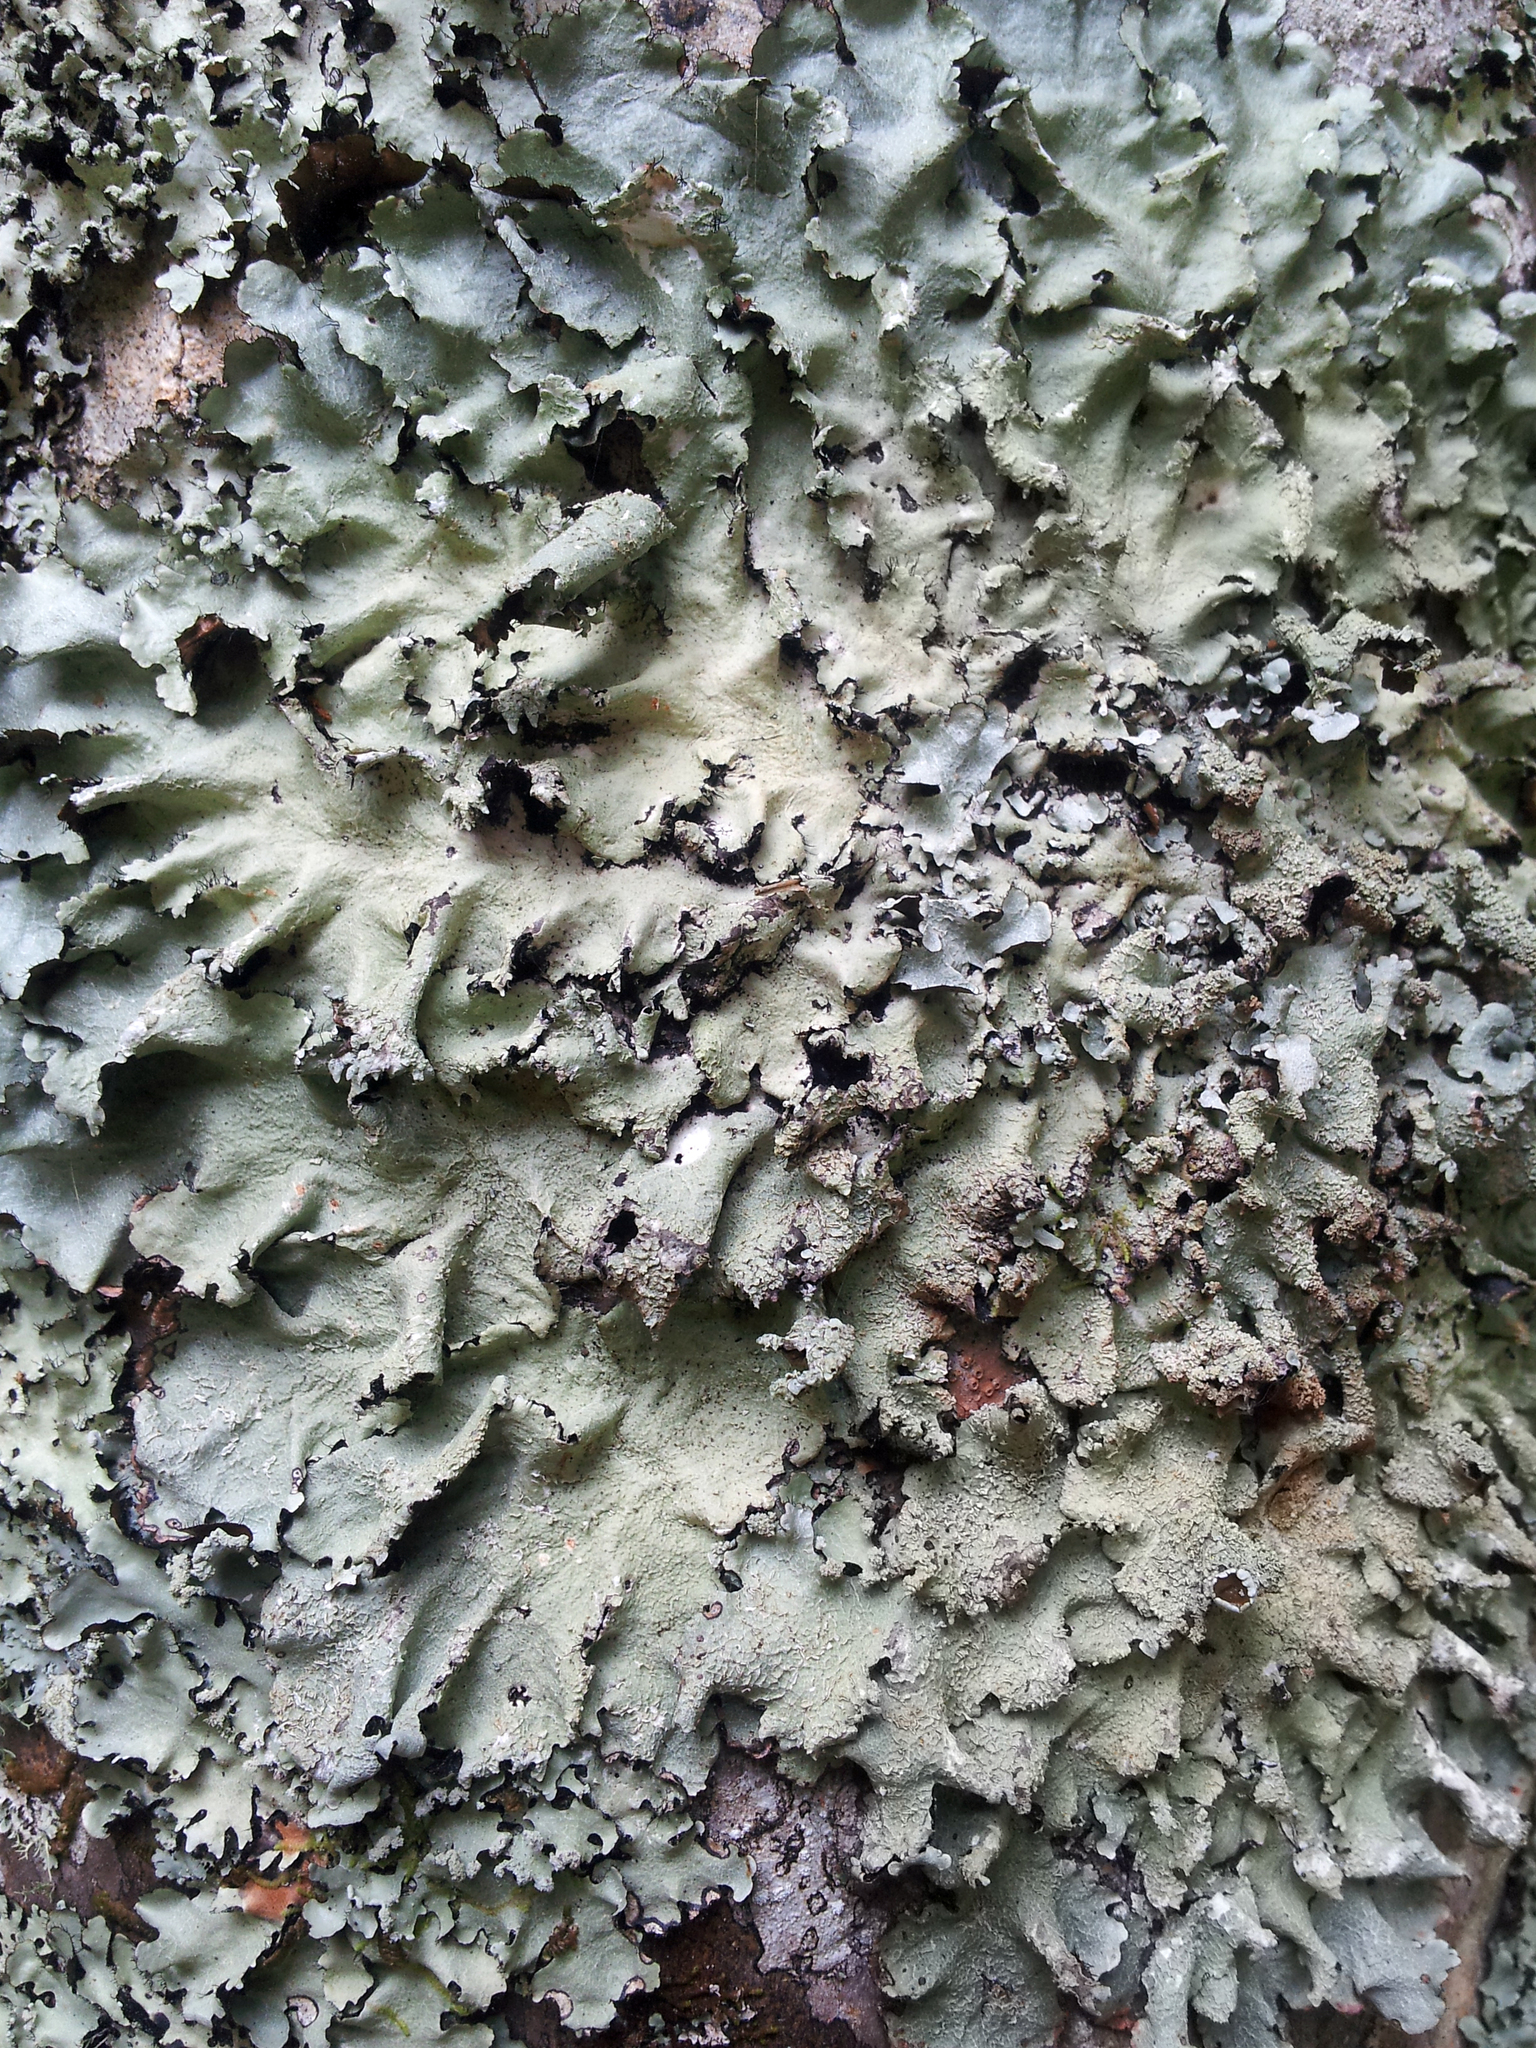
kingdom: Fungi
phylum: Ascomycota
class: Lecanoromycetes
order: Lecanorales
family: Parmeliaceae
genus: Parmotrema
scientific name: Parmotrema austrocetratum
